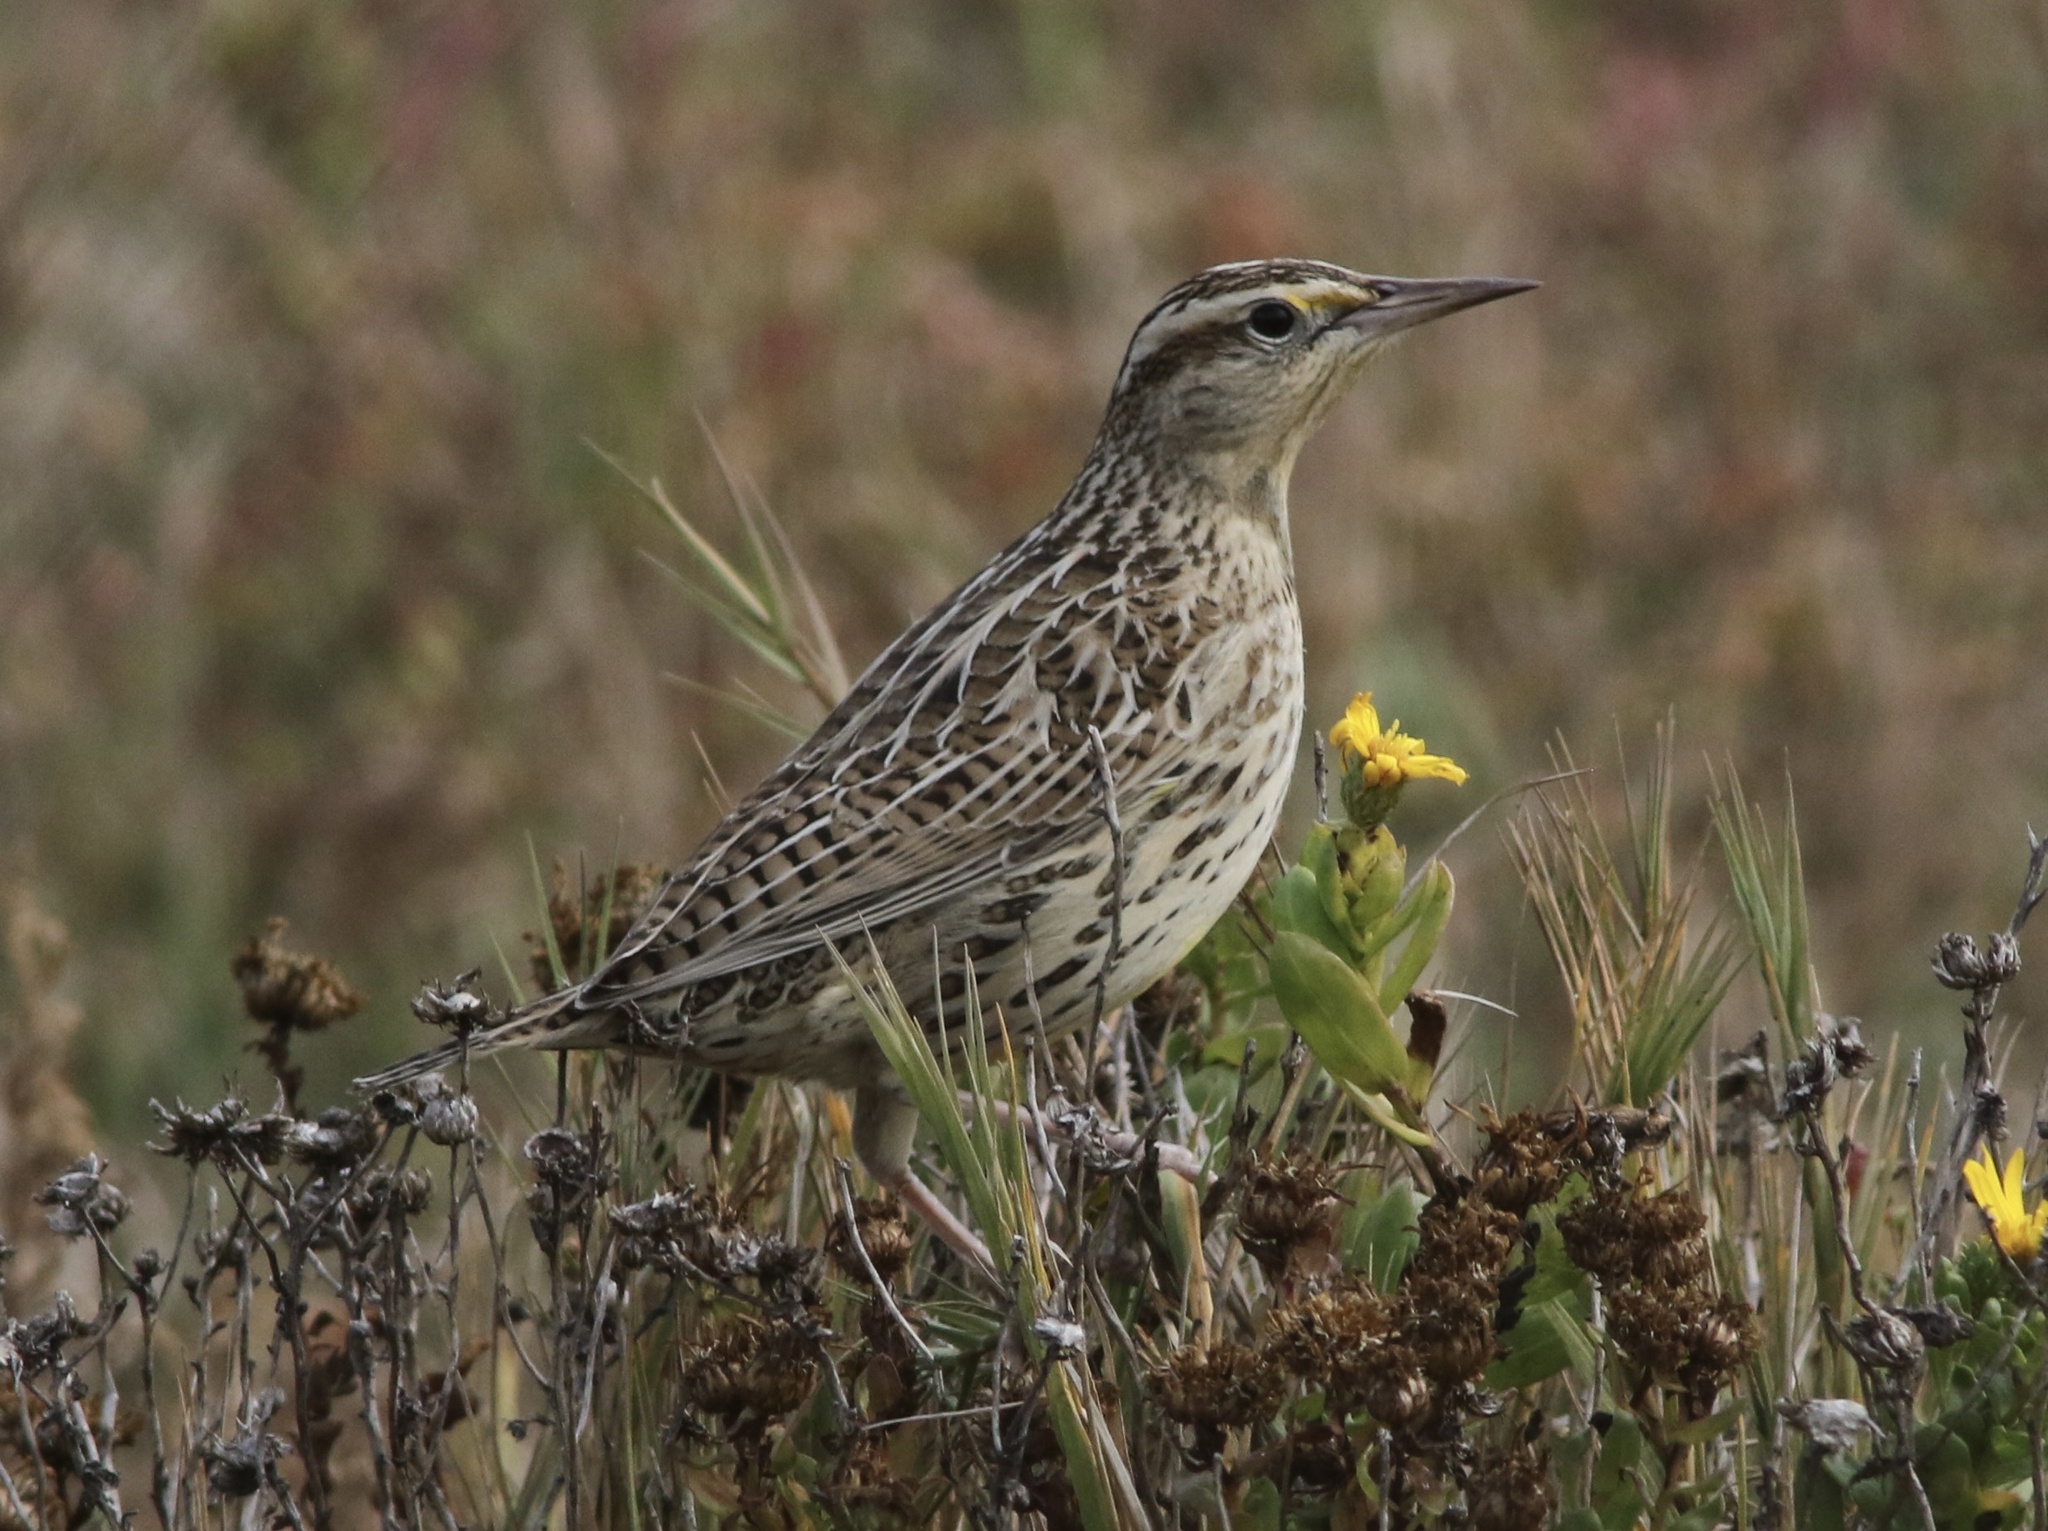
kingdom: Animalia
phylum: Chordata
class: Aves
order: Passeriformes
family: Icteridae
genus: Sturnella
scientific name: Sturnella neglecta
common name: Western meadowlark
